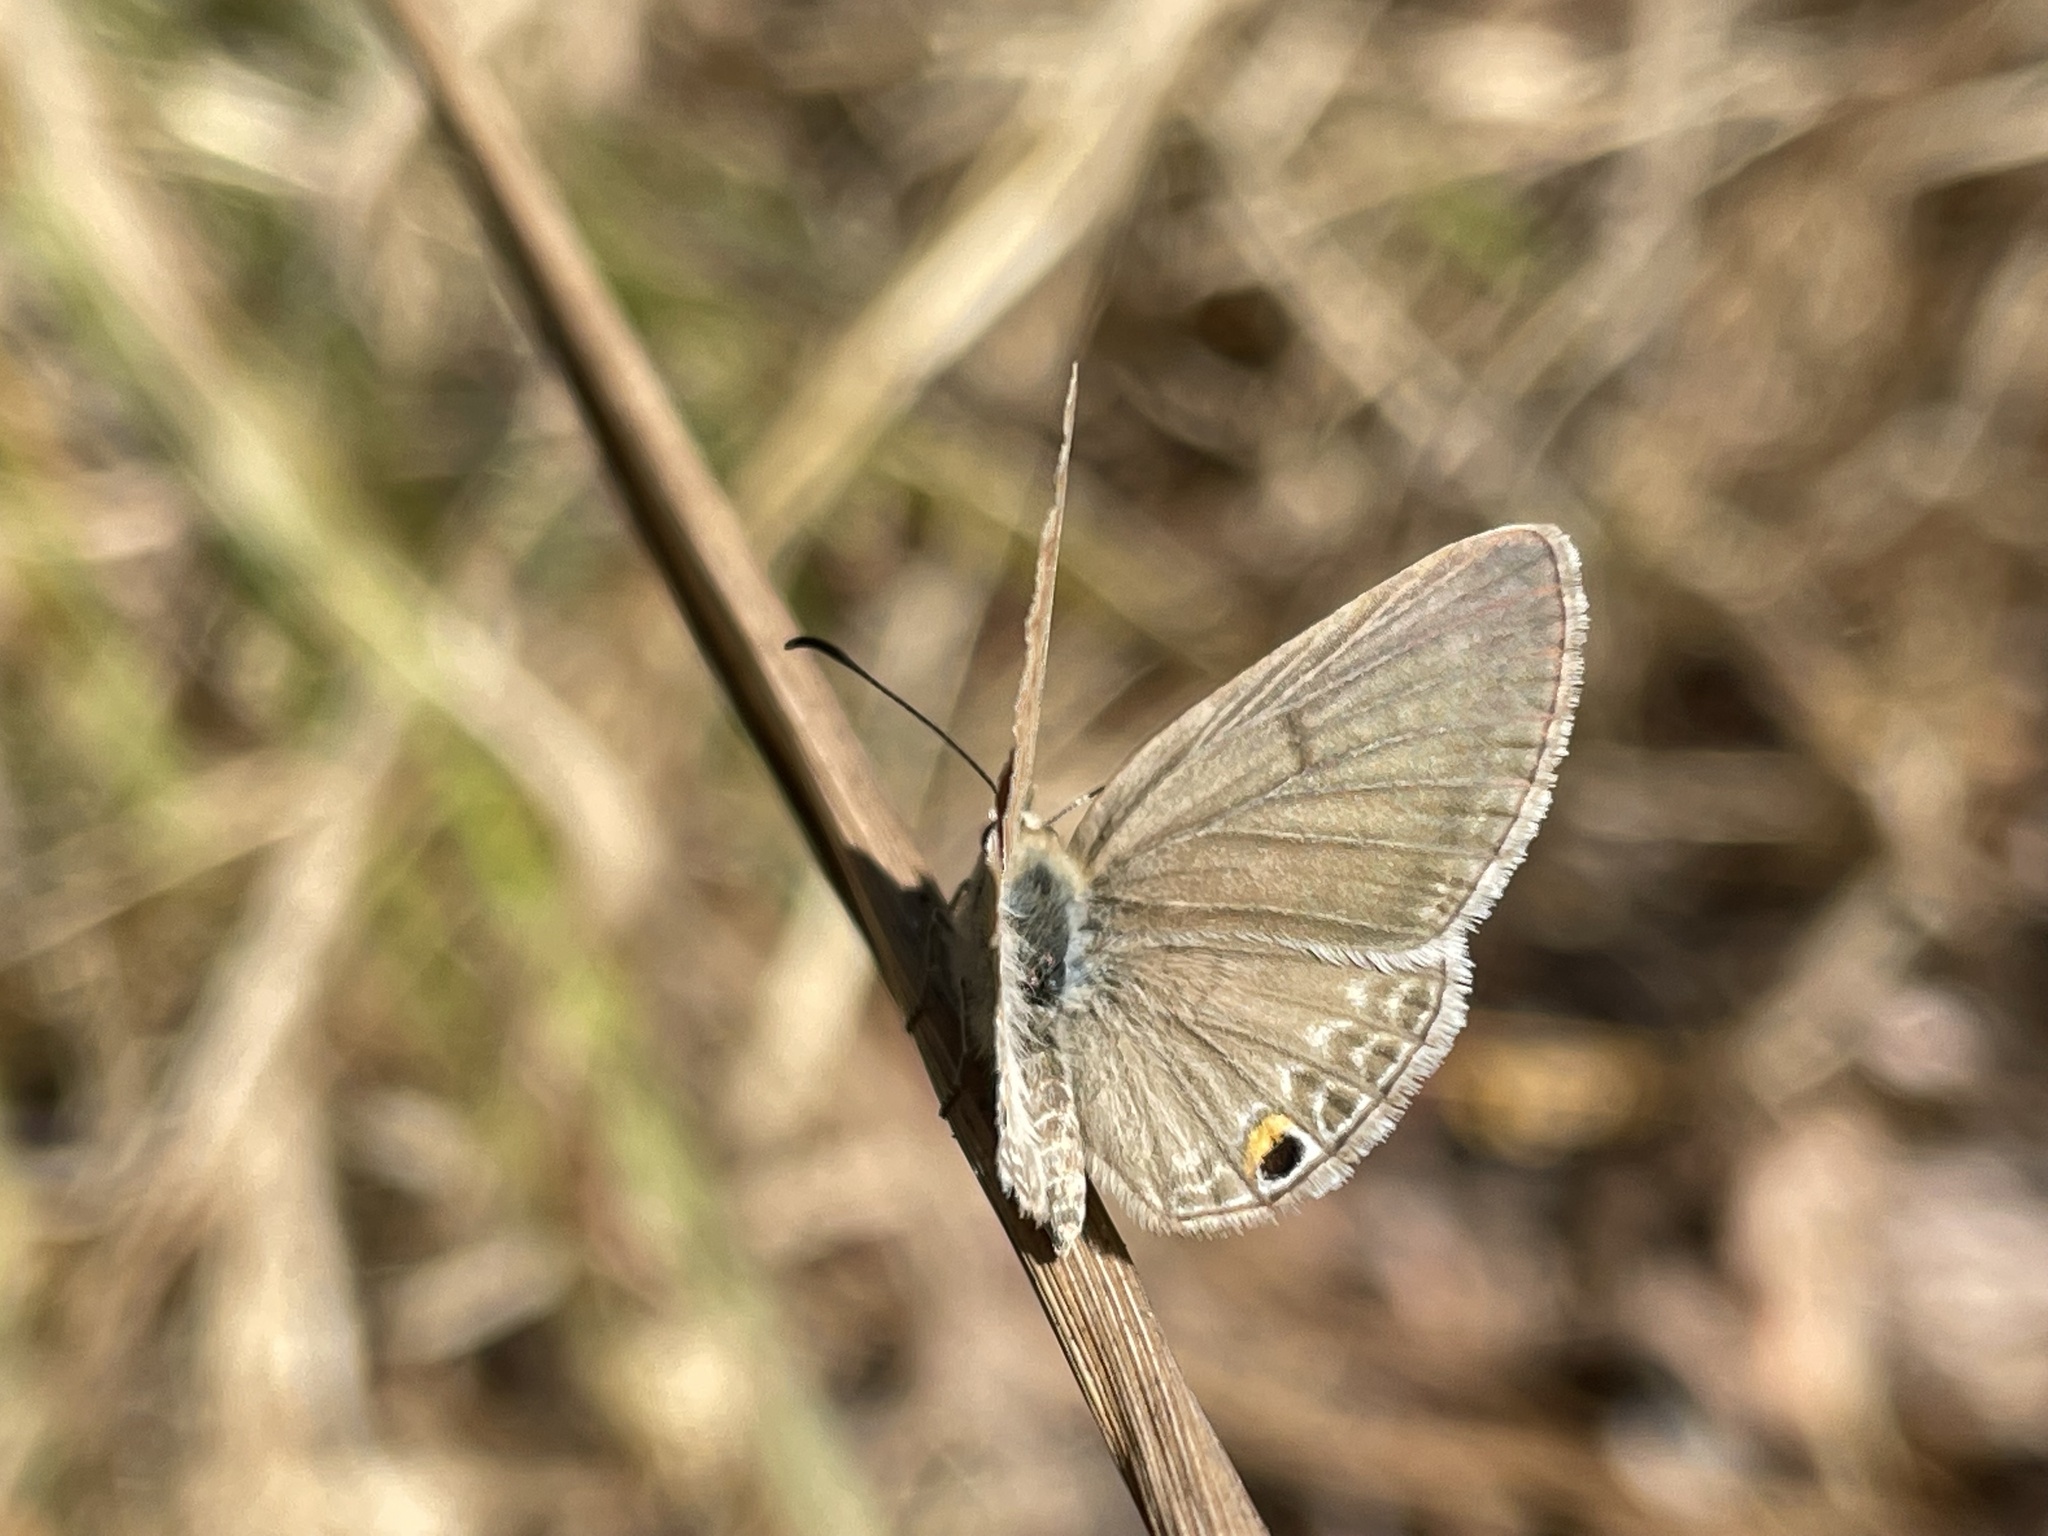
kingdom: Animalia
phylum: Arthropoda
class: Insecta
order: Lepidoptera
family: Lycaenidae
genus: Euchrysops
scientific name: Euchrysops malathana
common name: Common smoky blue
